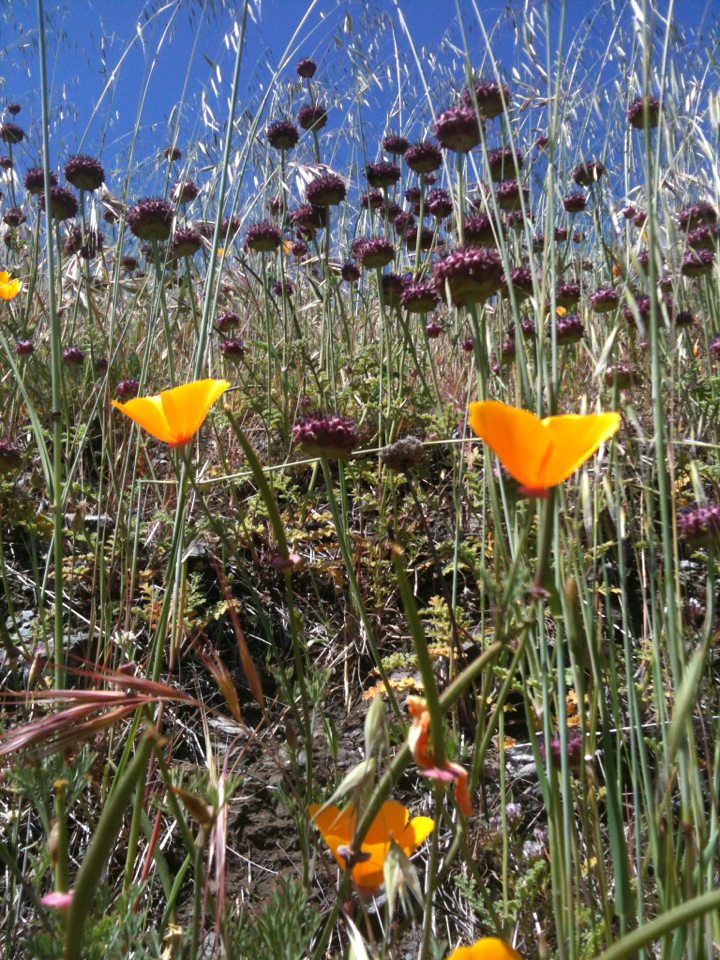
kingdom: Plantae
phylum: Tracheophyta
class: Magnoliopsida
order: Ranunculales
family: Papaveraceae
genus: Eschscholzia
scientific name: Eschscholzia californica
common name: California poppy
